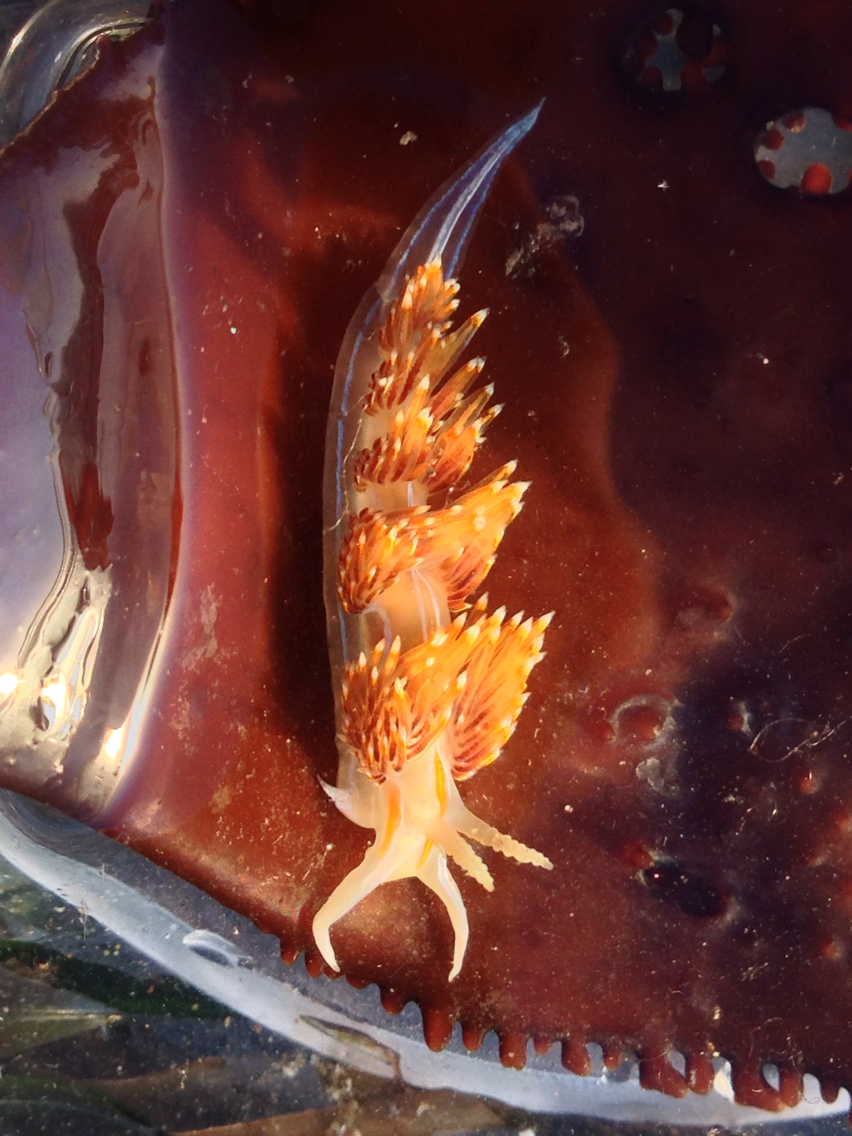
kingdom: Animalia
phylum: Mollusca
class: Gastropoda
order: Nudibranchia
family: Myrrhinidae
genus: Hermissenda
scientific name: Hermissenda opalescens
